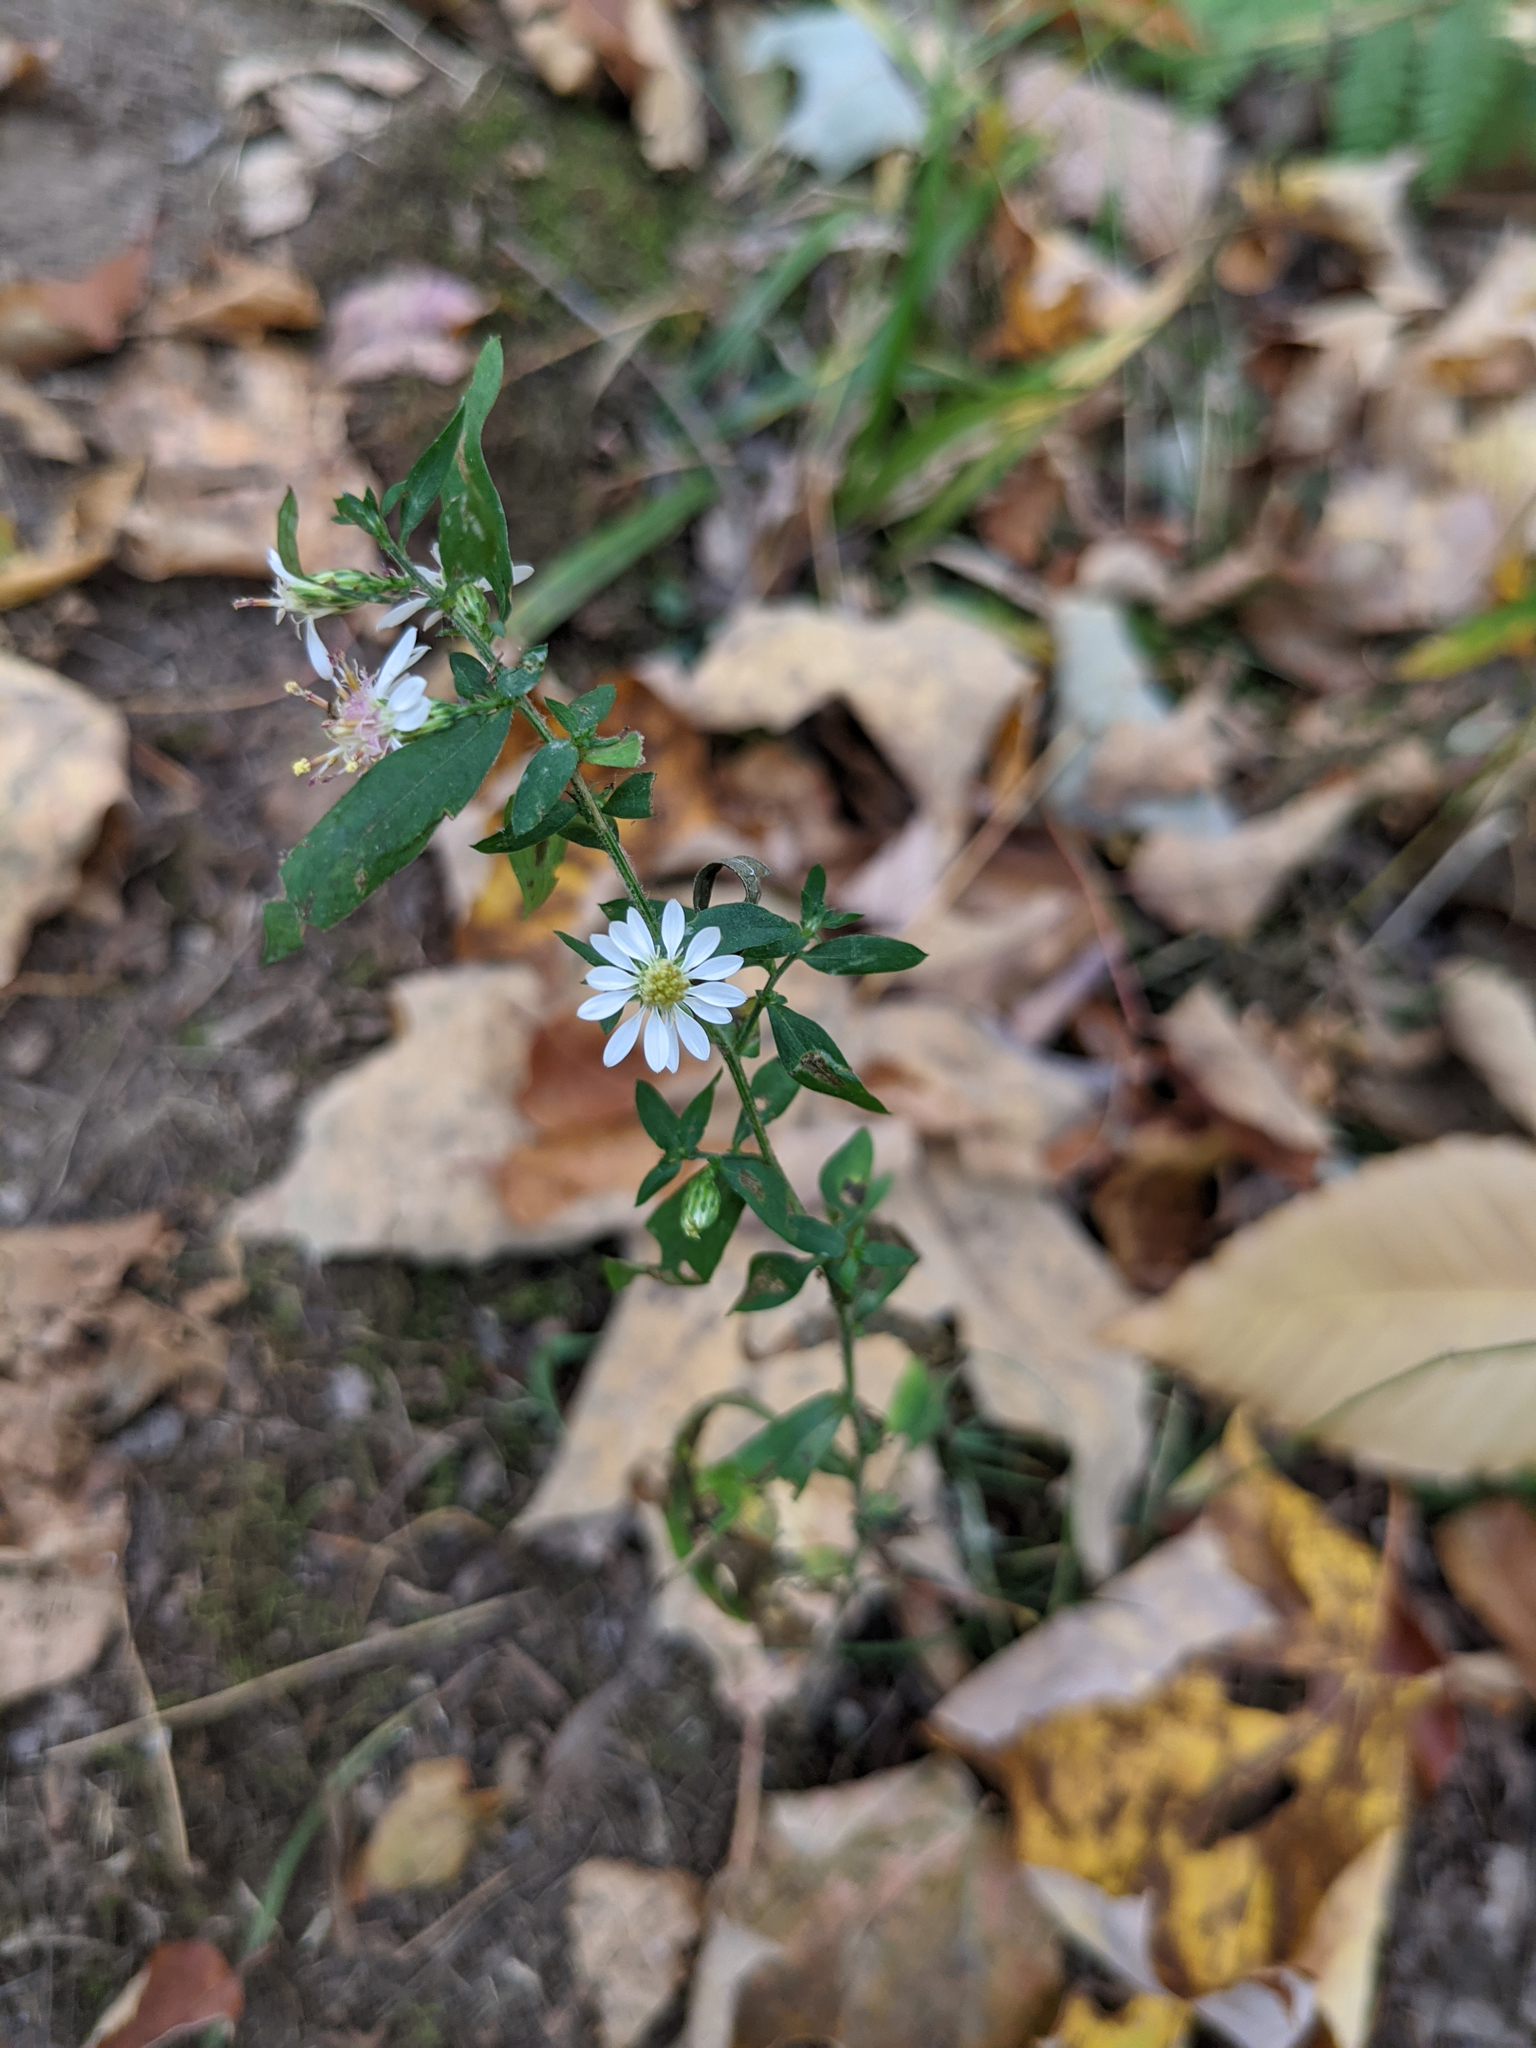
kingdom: Plantae
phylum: Tracheophyta
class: Magnoliopsida
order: Asterales
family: Asteraceae
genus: Symphyotrichum
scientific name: Symphyotrichum lateriflorum
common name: Calico aster
